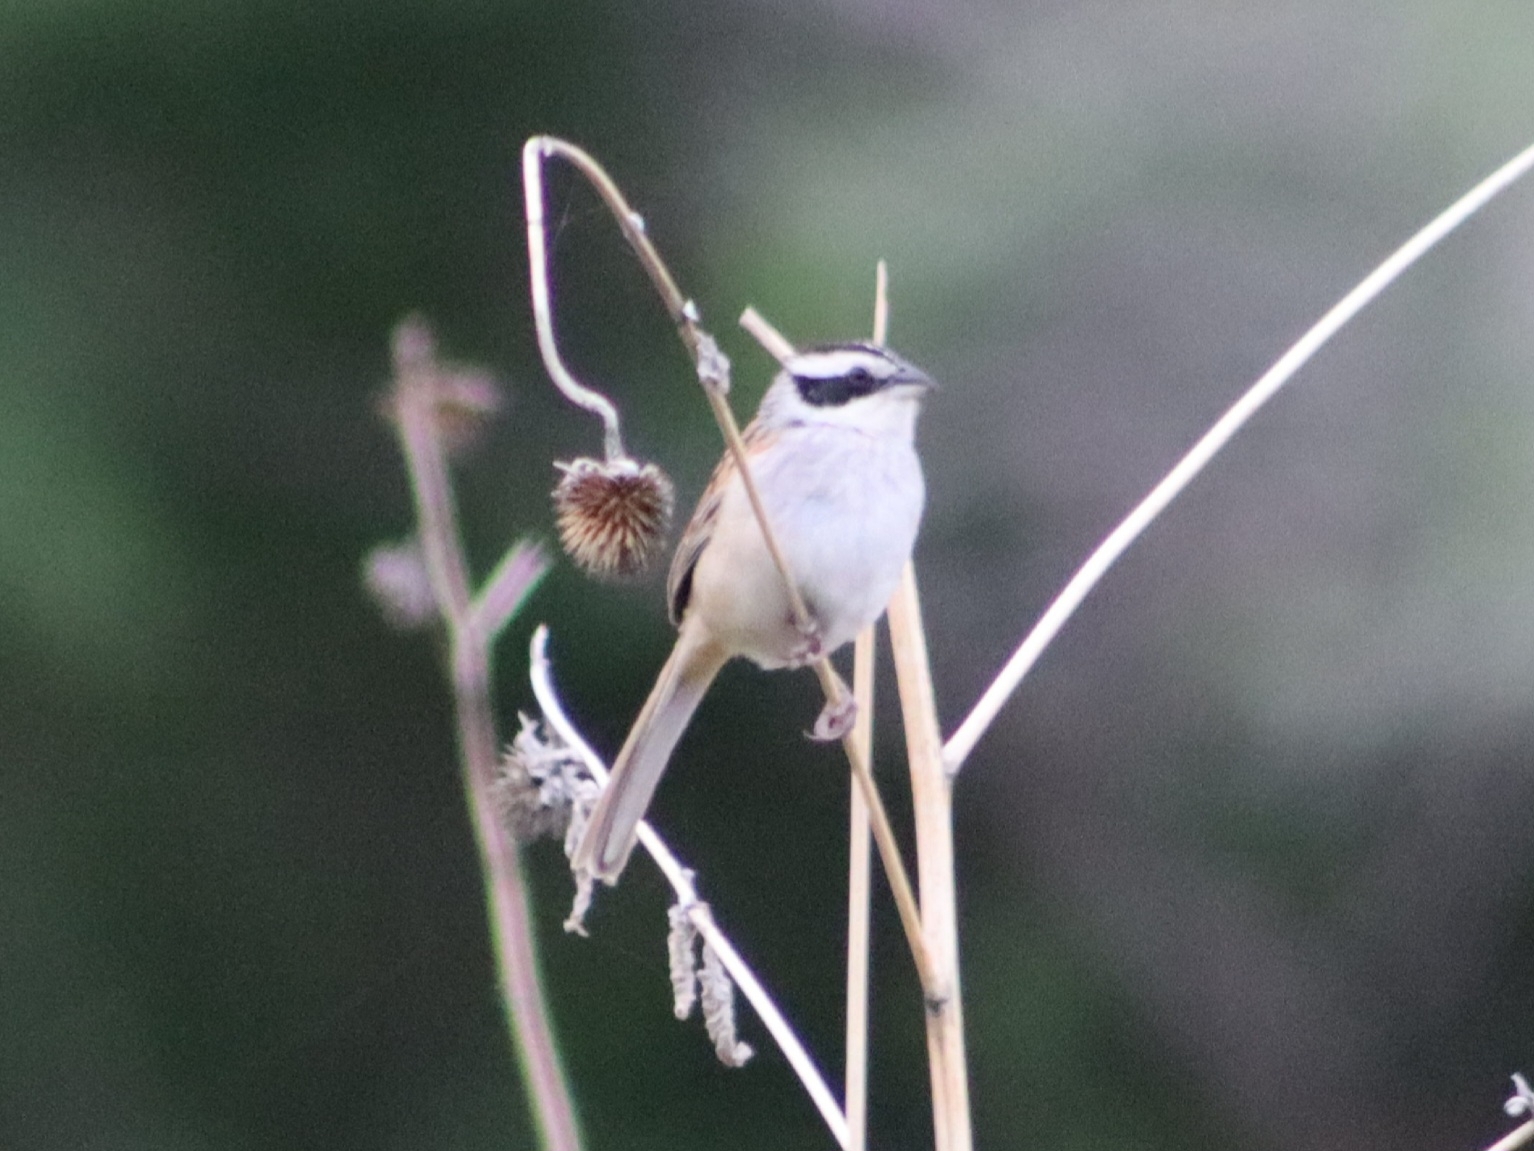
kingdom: Animalia
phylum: Chordata
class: Aves
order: Passeriformes
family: Passerellidae
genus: Peucaea
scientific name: Peucaea ruficauda
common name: Stripe-headed sparrow
